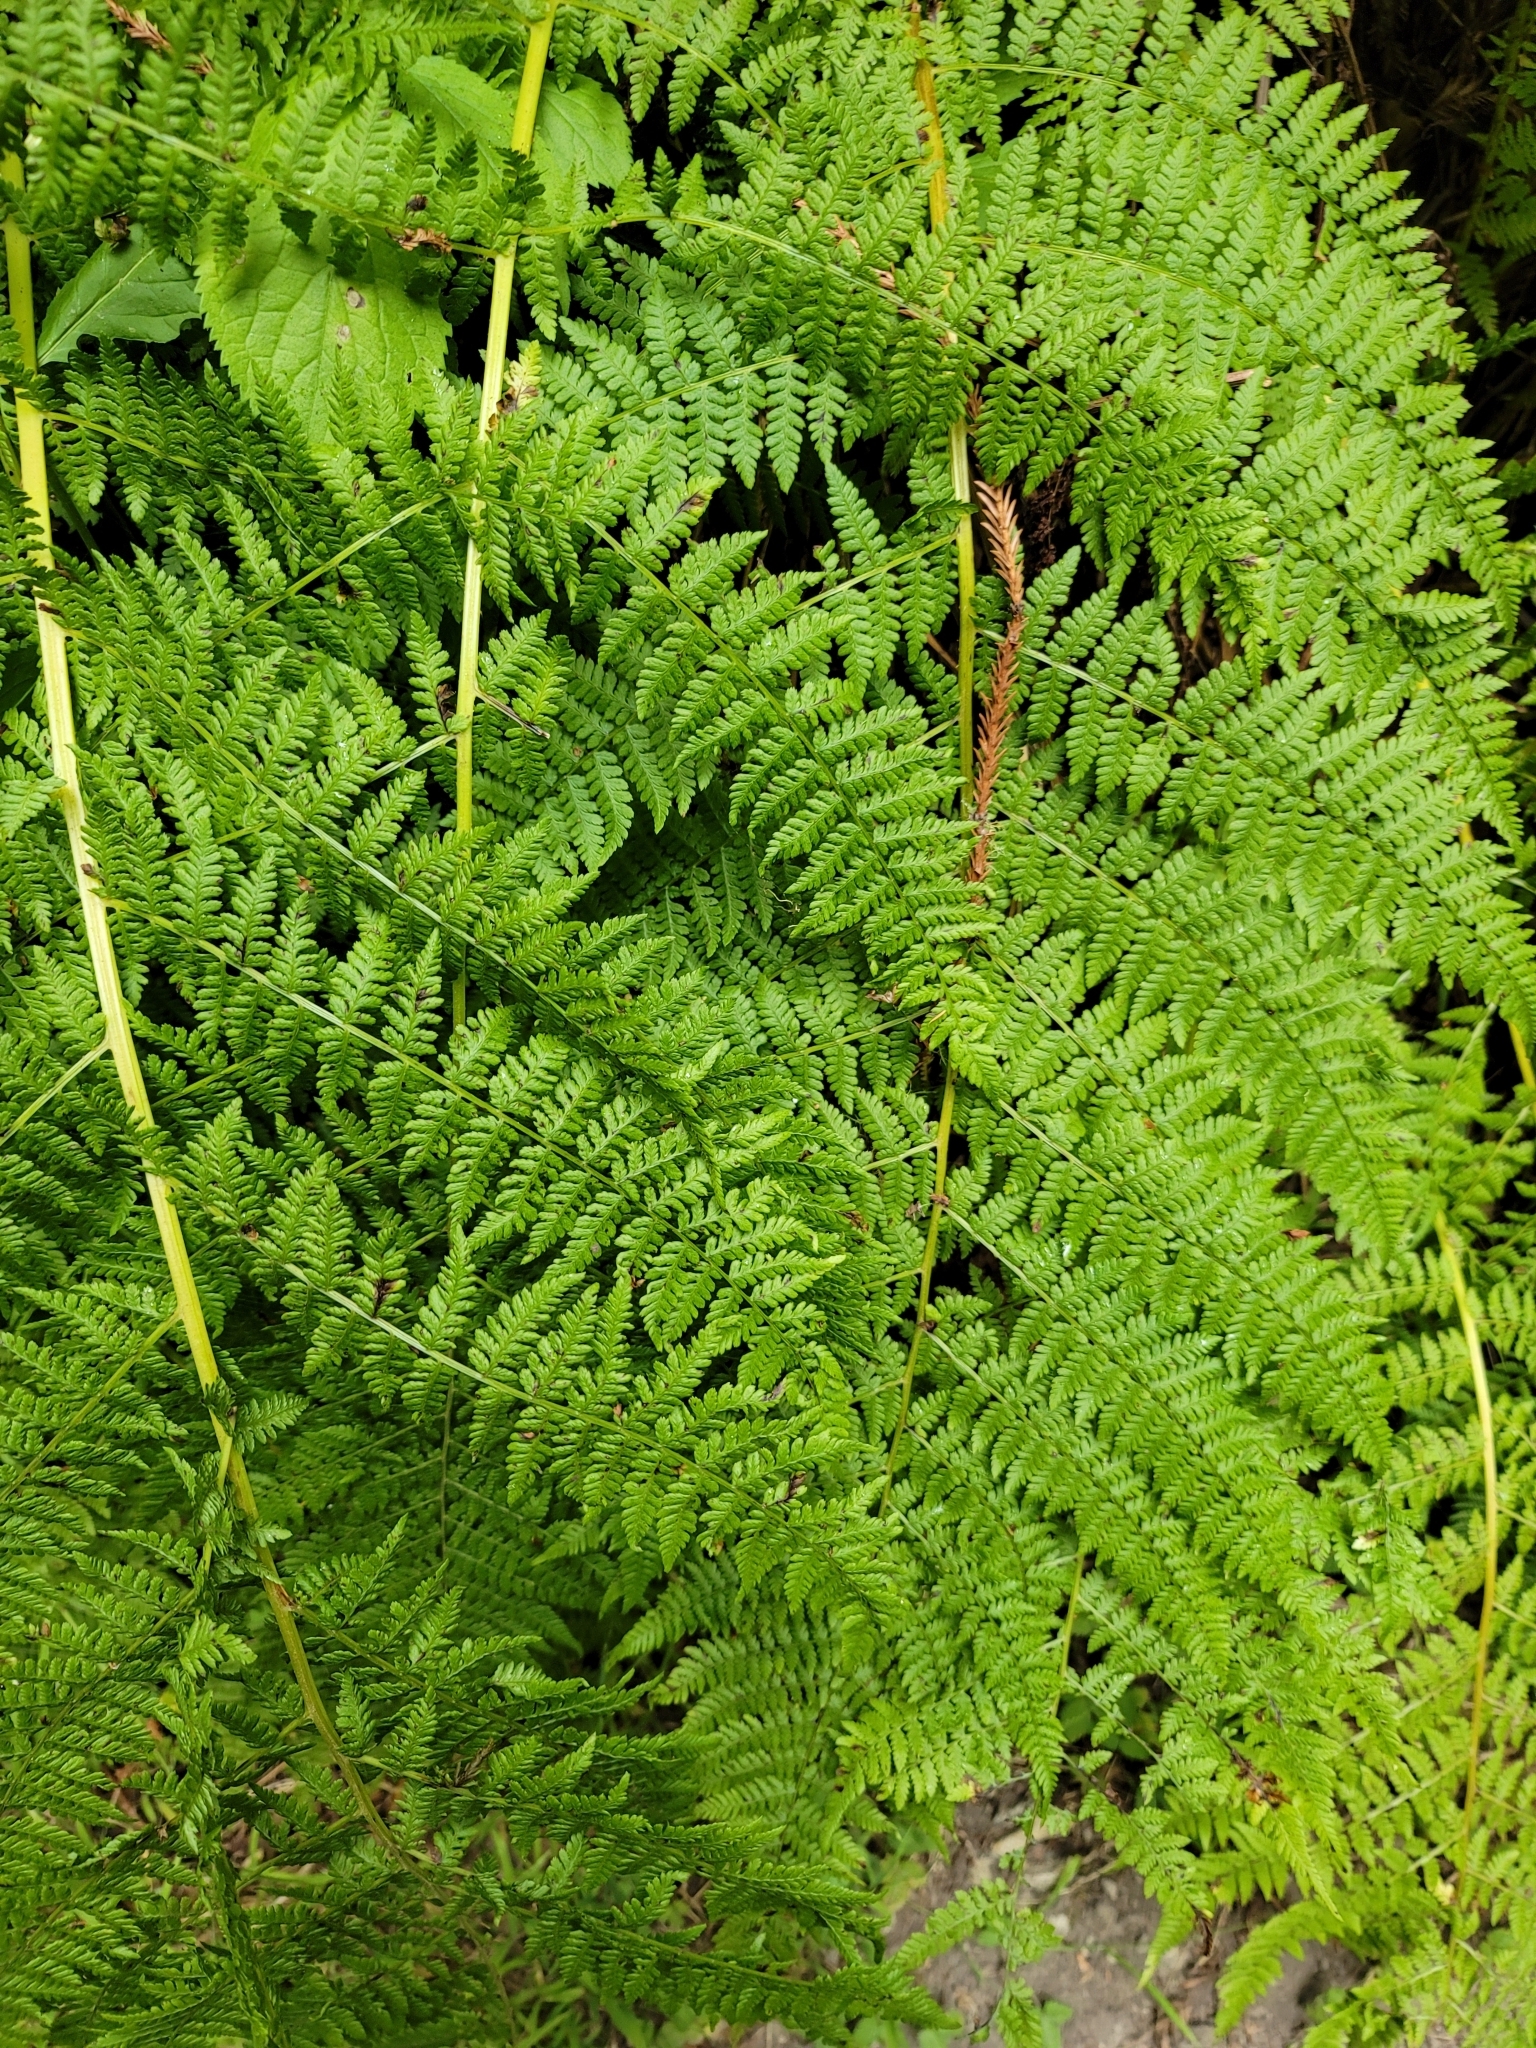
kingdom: Plantae
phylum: Tracheophyta
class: Polypodiopsida
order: Polypodiales
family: Athyriaceae
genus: Athyrium
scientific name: Athyrium filix-femina
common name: Lady fern
